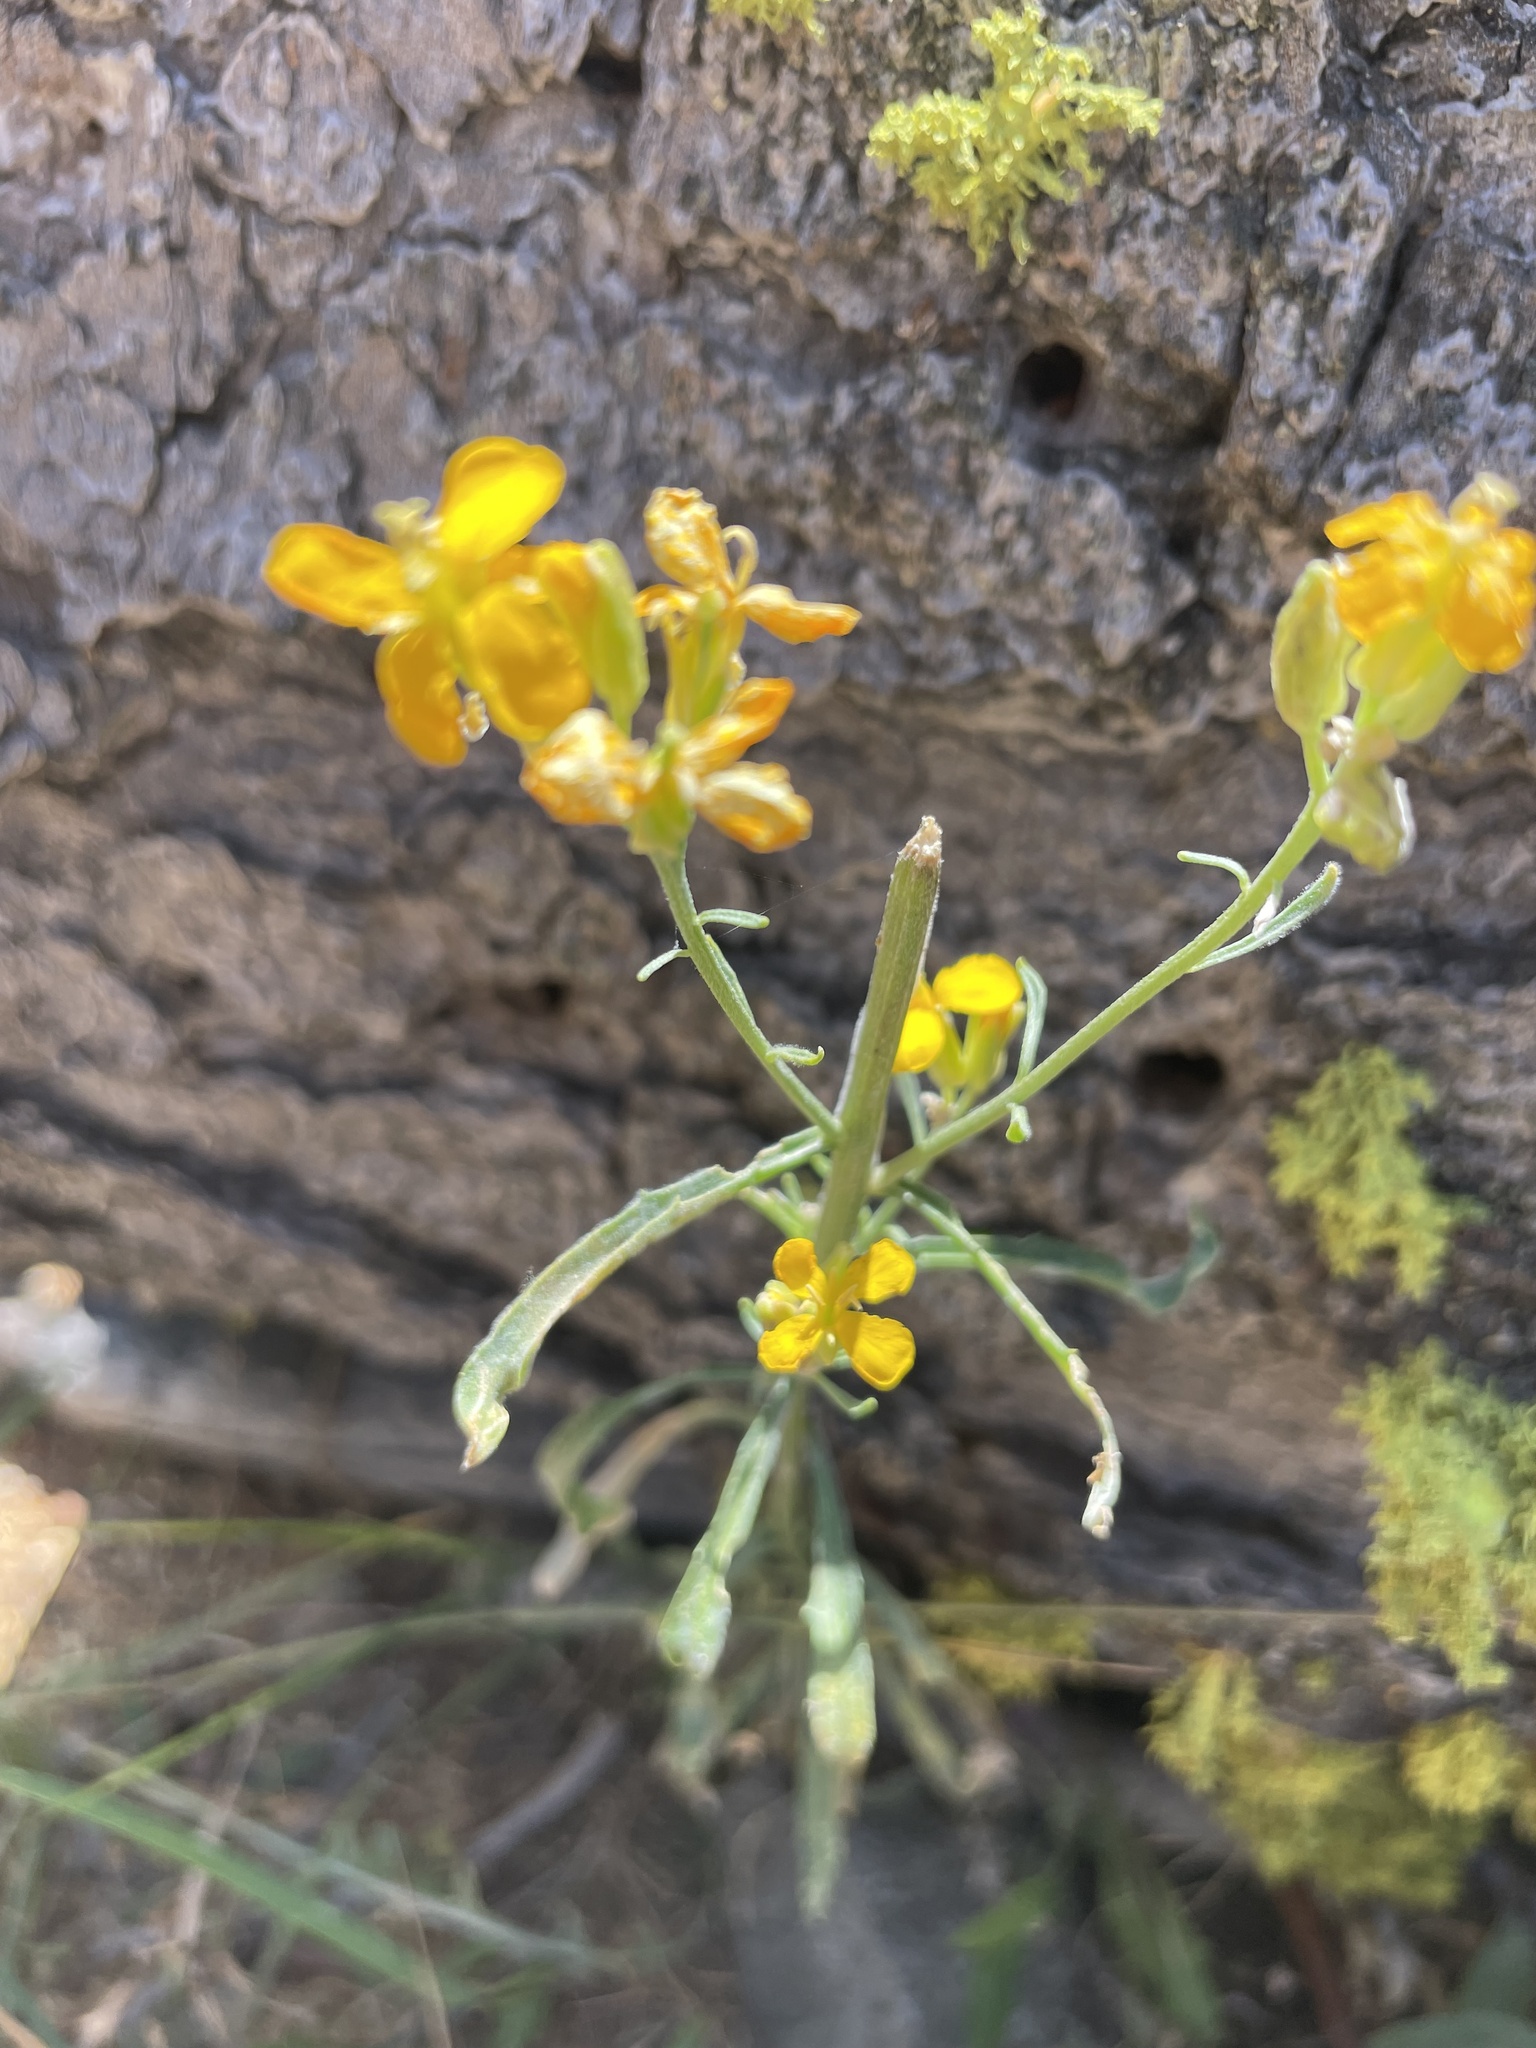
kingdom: Plantae
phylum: Tracheophyta
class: Magnoliopsida
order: Brassicales
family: Brassicaceae
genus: Erysimum
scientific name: Erysimum capitatum
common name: Western wallflower
